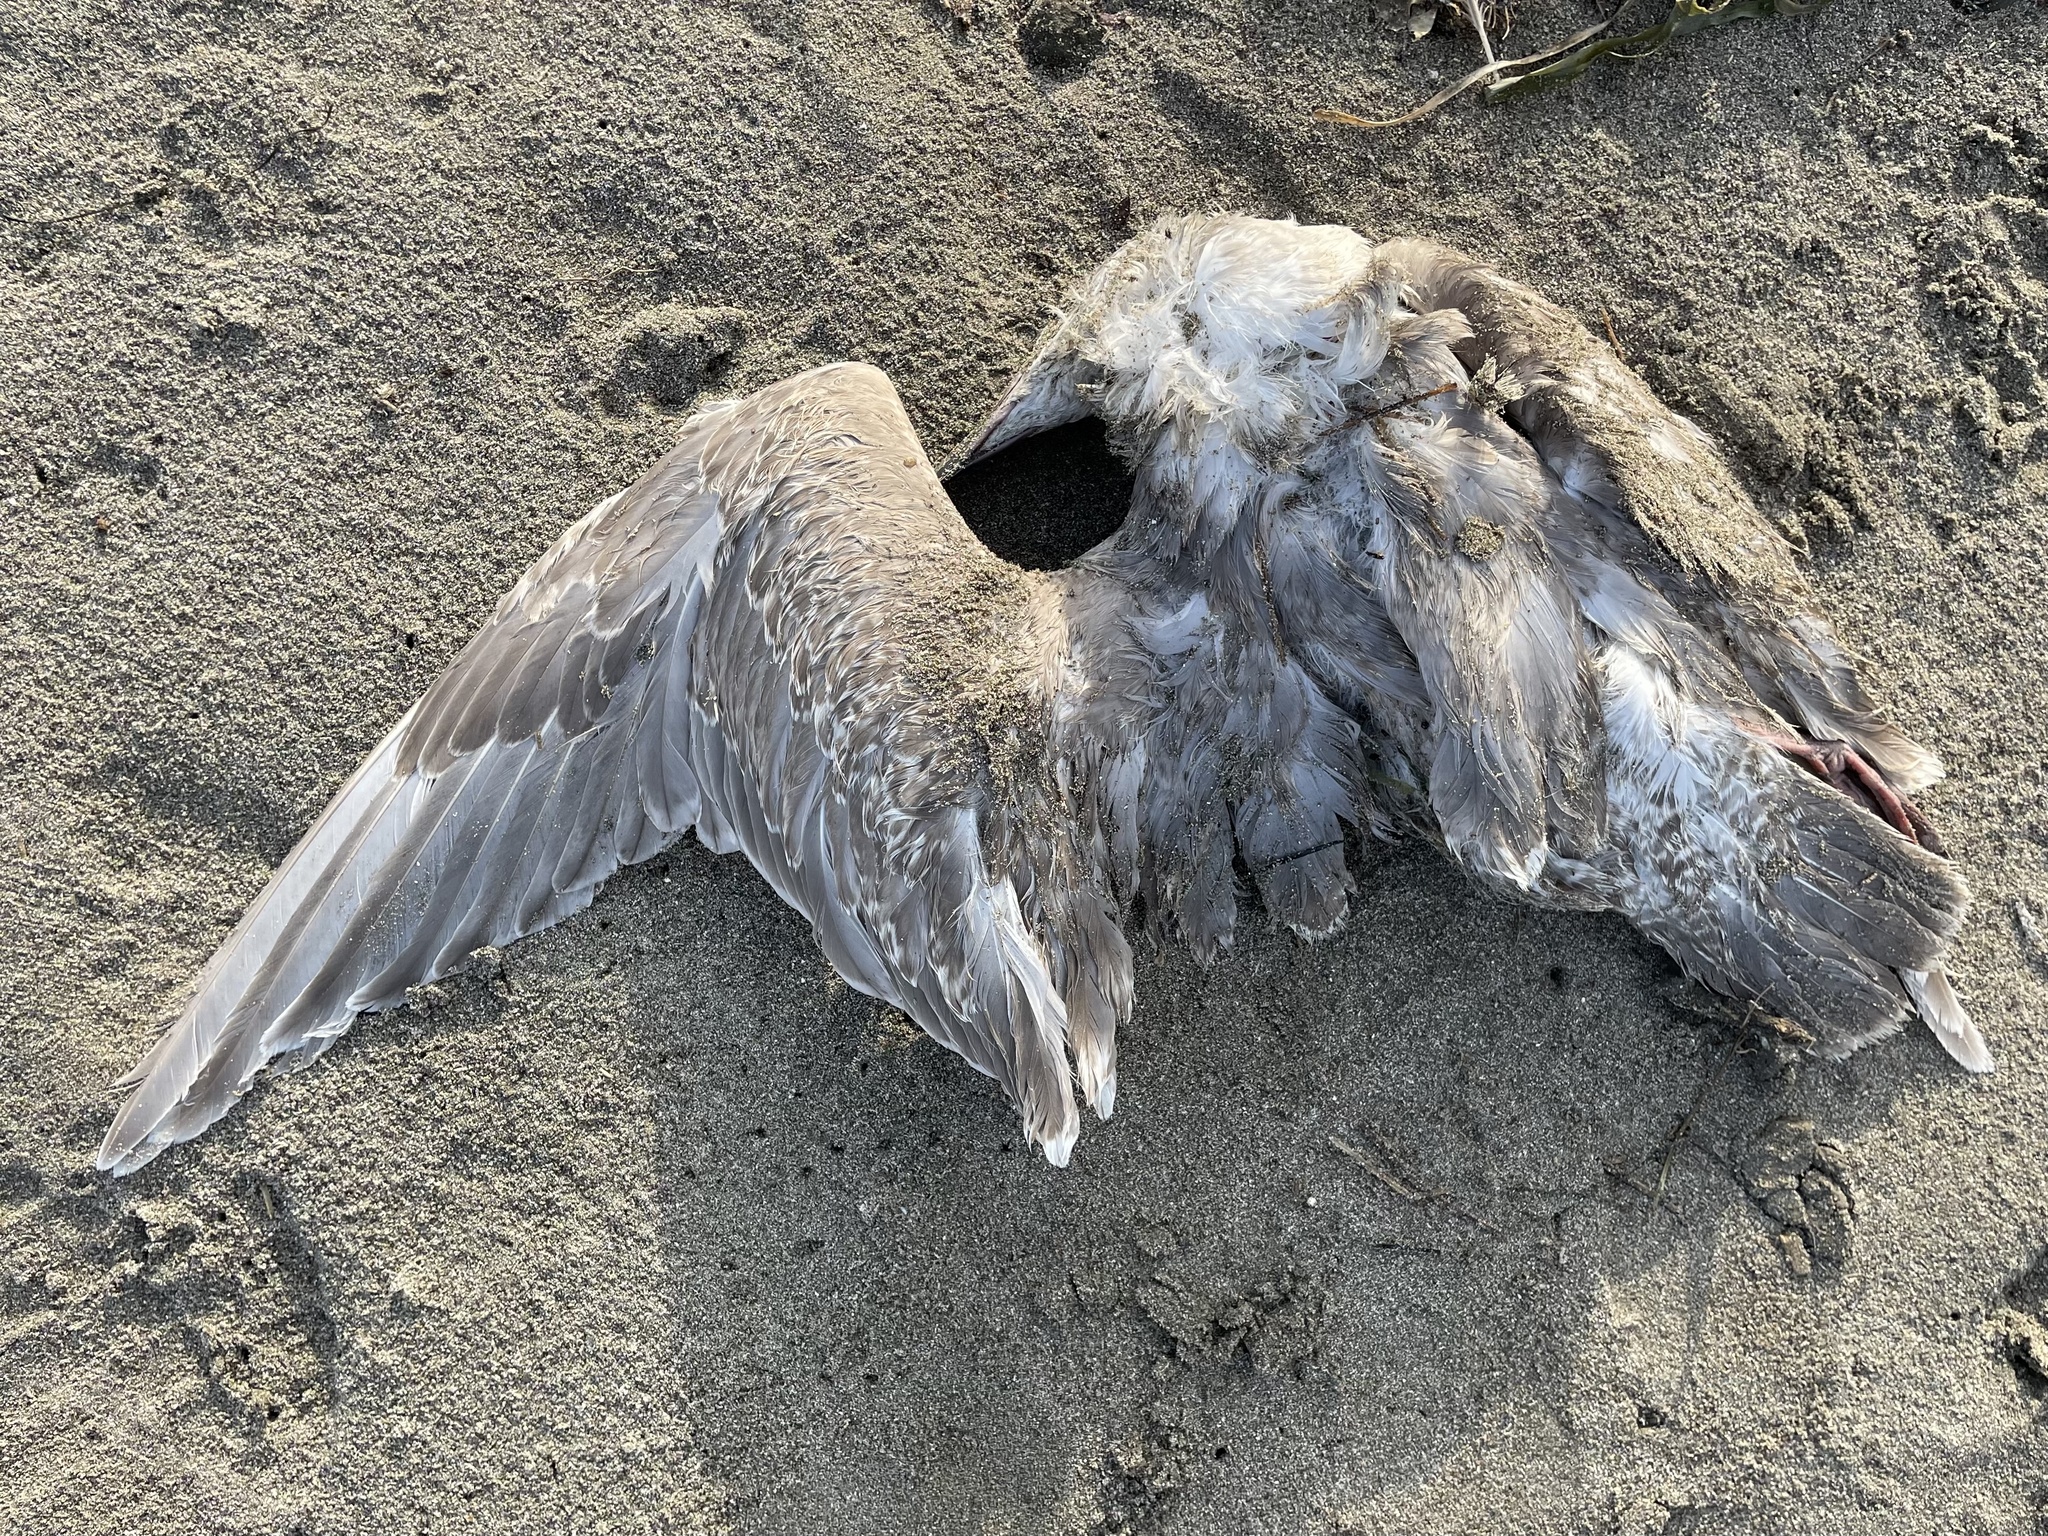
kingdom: Animalia
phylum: Chordata
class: Aves
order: Charadriiformes
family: Laridae
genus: Larus
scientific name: Larus glaucescens
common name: Glaucous-winged gull
